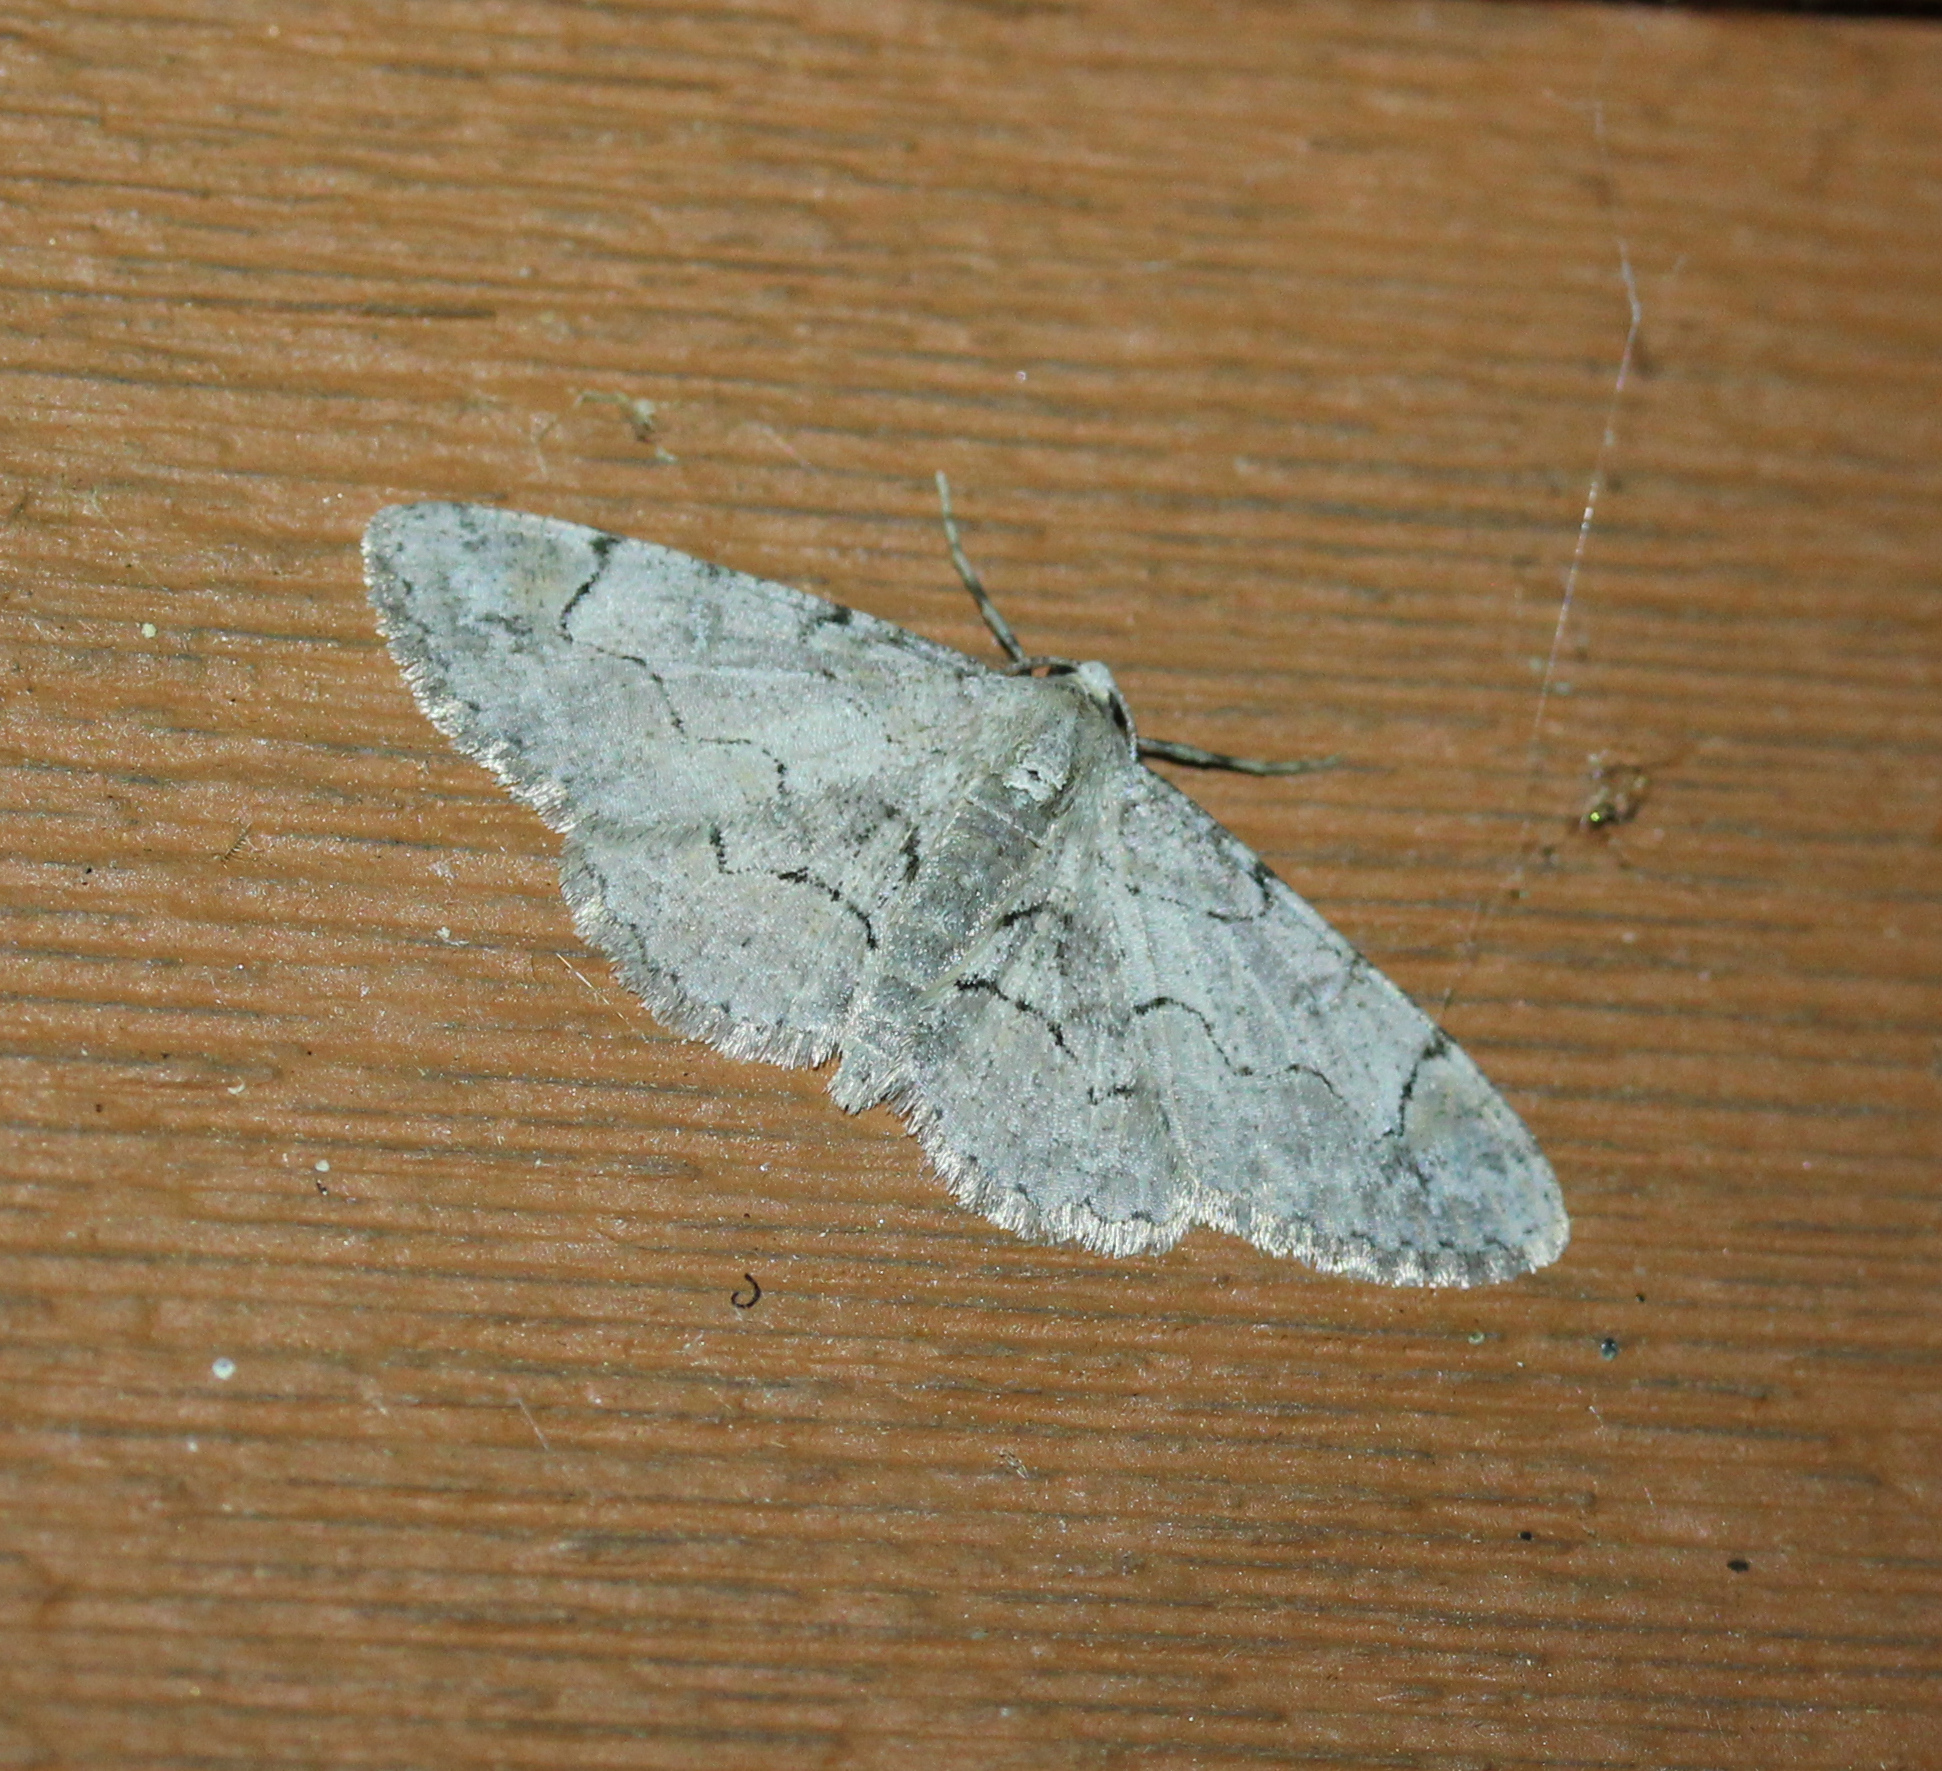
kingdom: Animalia
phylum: Arthropoda
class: Insecta
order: Lepidoptera
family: Geometridae
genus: Iridopsis
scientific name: Iridopsis larvaria
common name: Bent-line gray
